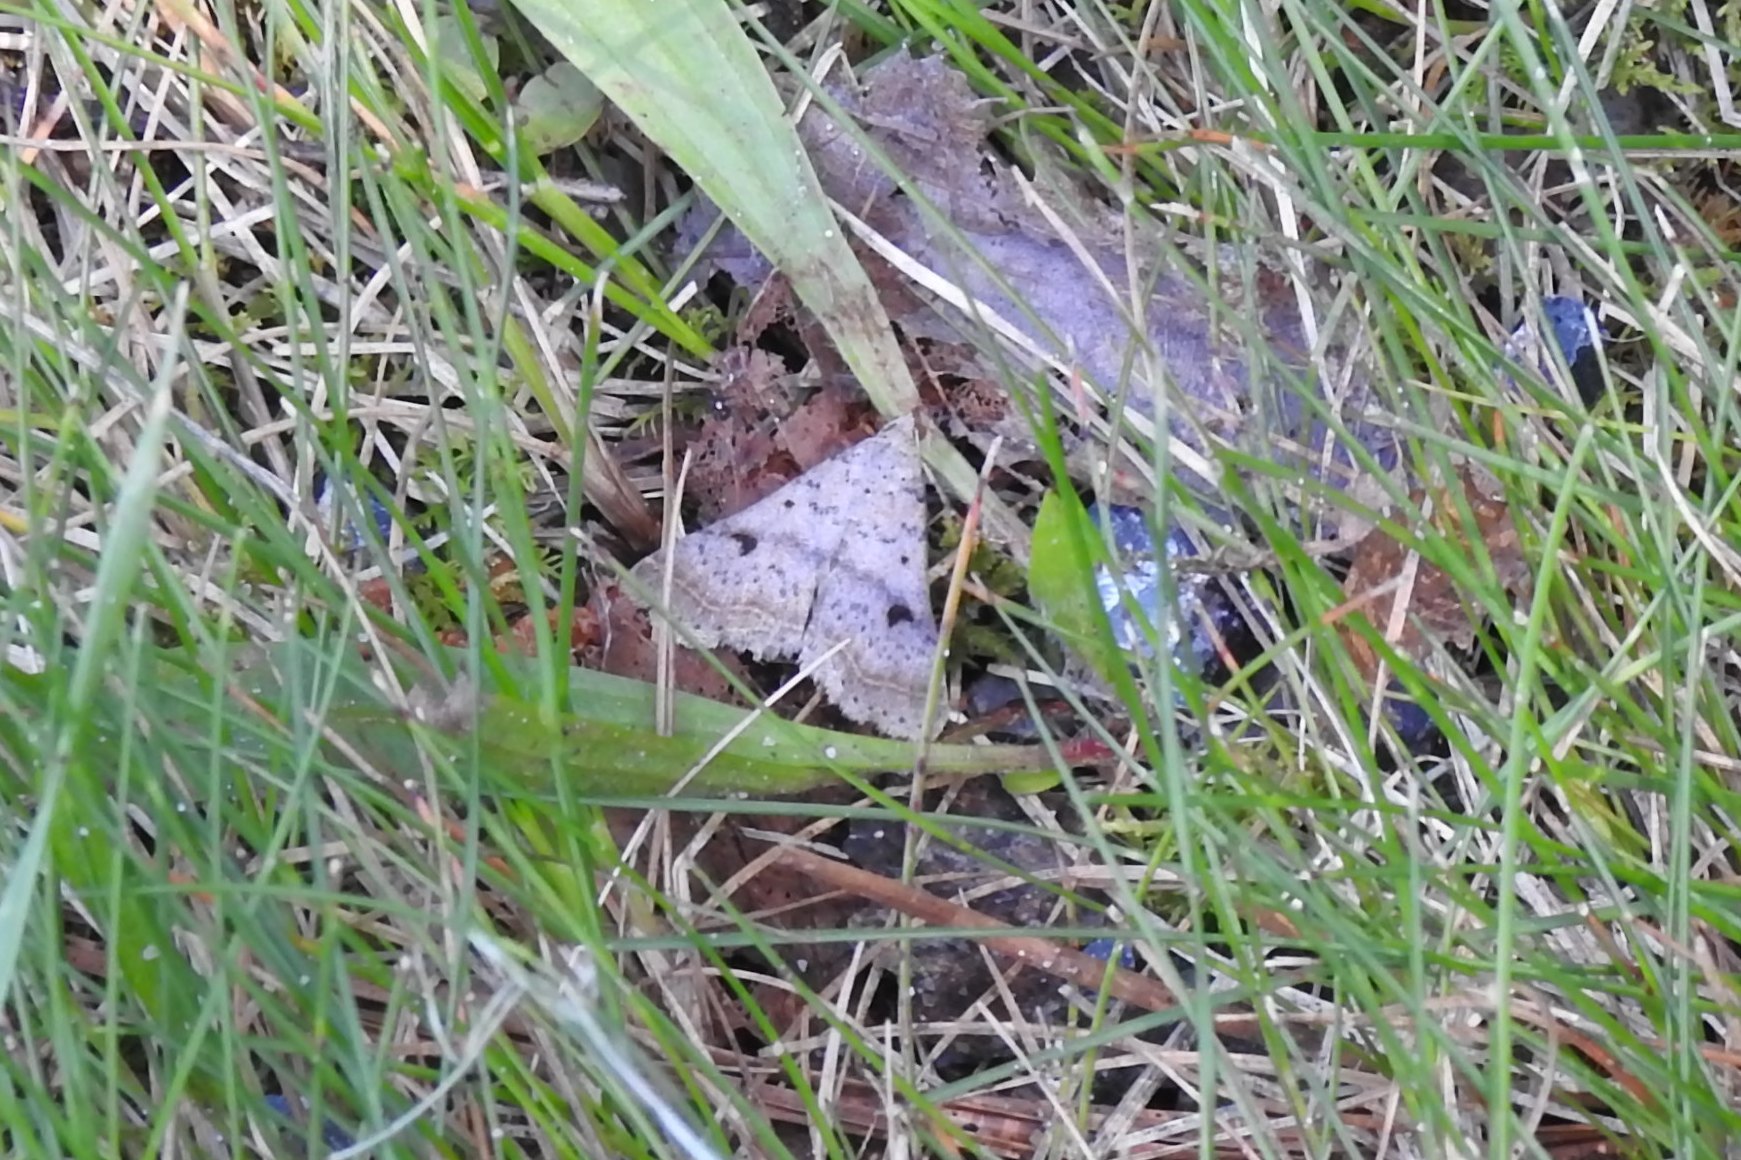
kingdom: Animalia
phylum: Arthropoda
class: Insecta
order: Lepidoptera
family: Erebidae
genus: Bleptina
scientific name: Bleptina caradrinalis
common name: Bent-winged owlet
